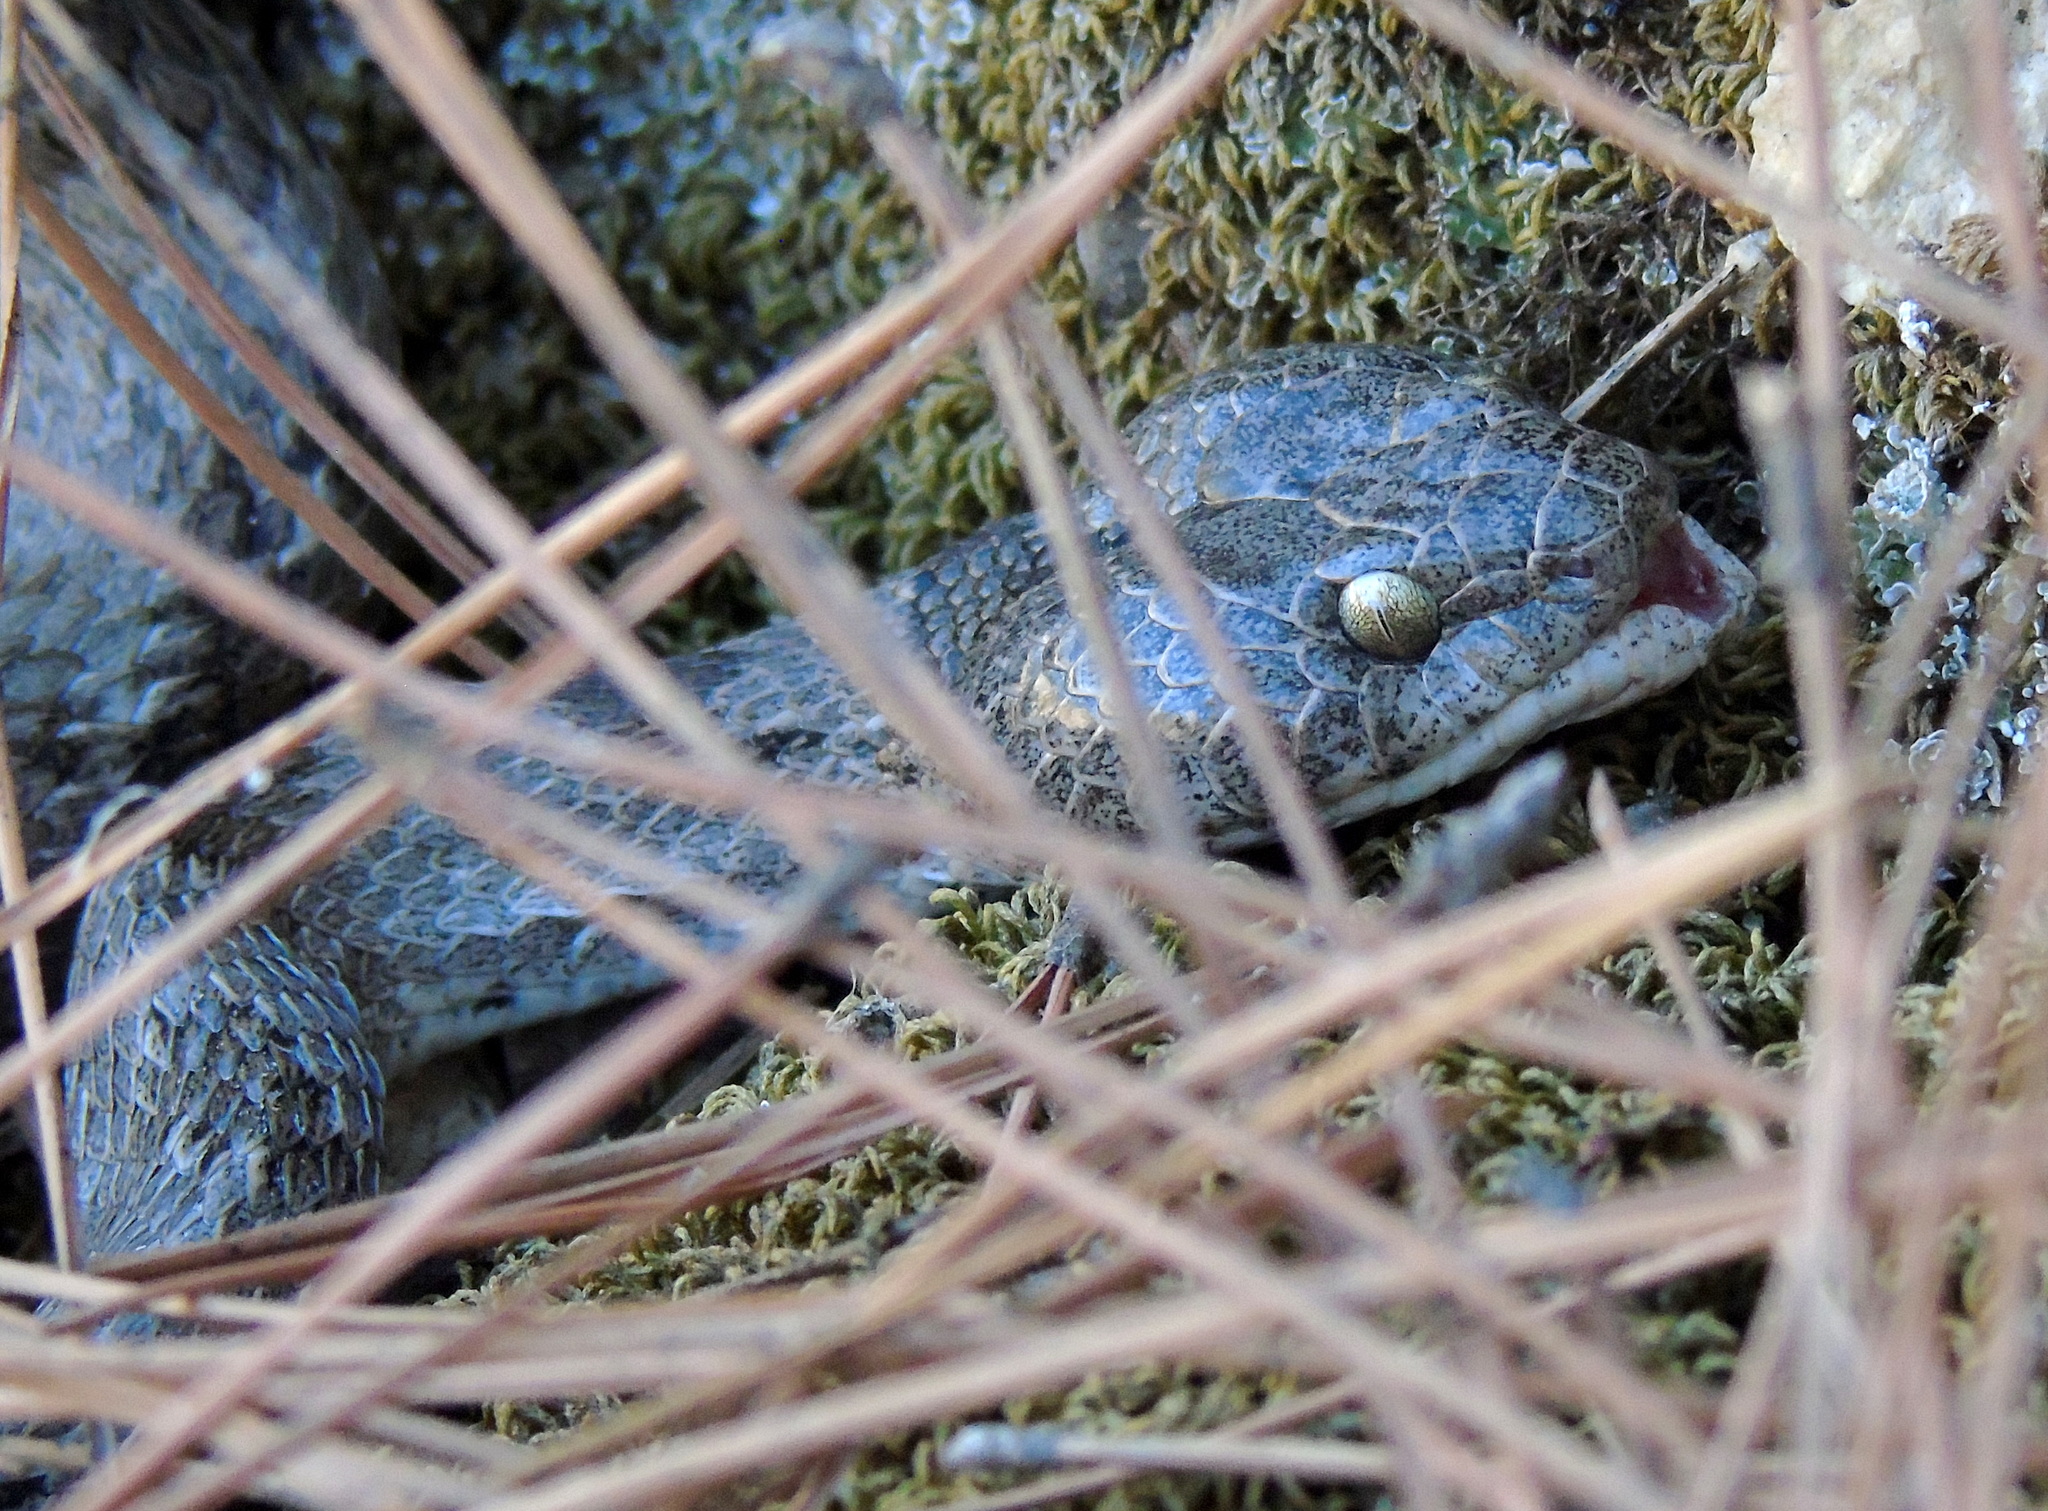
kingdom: Animalia
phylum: Chordata
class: Squamata
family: Colubridae
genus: Telescopus
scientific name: Telescopus fallax
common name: Cat snake
